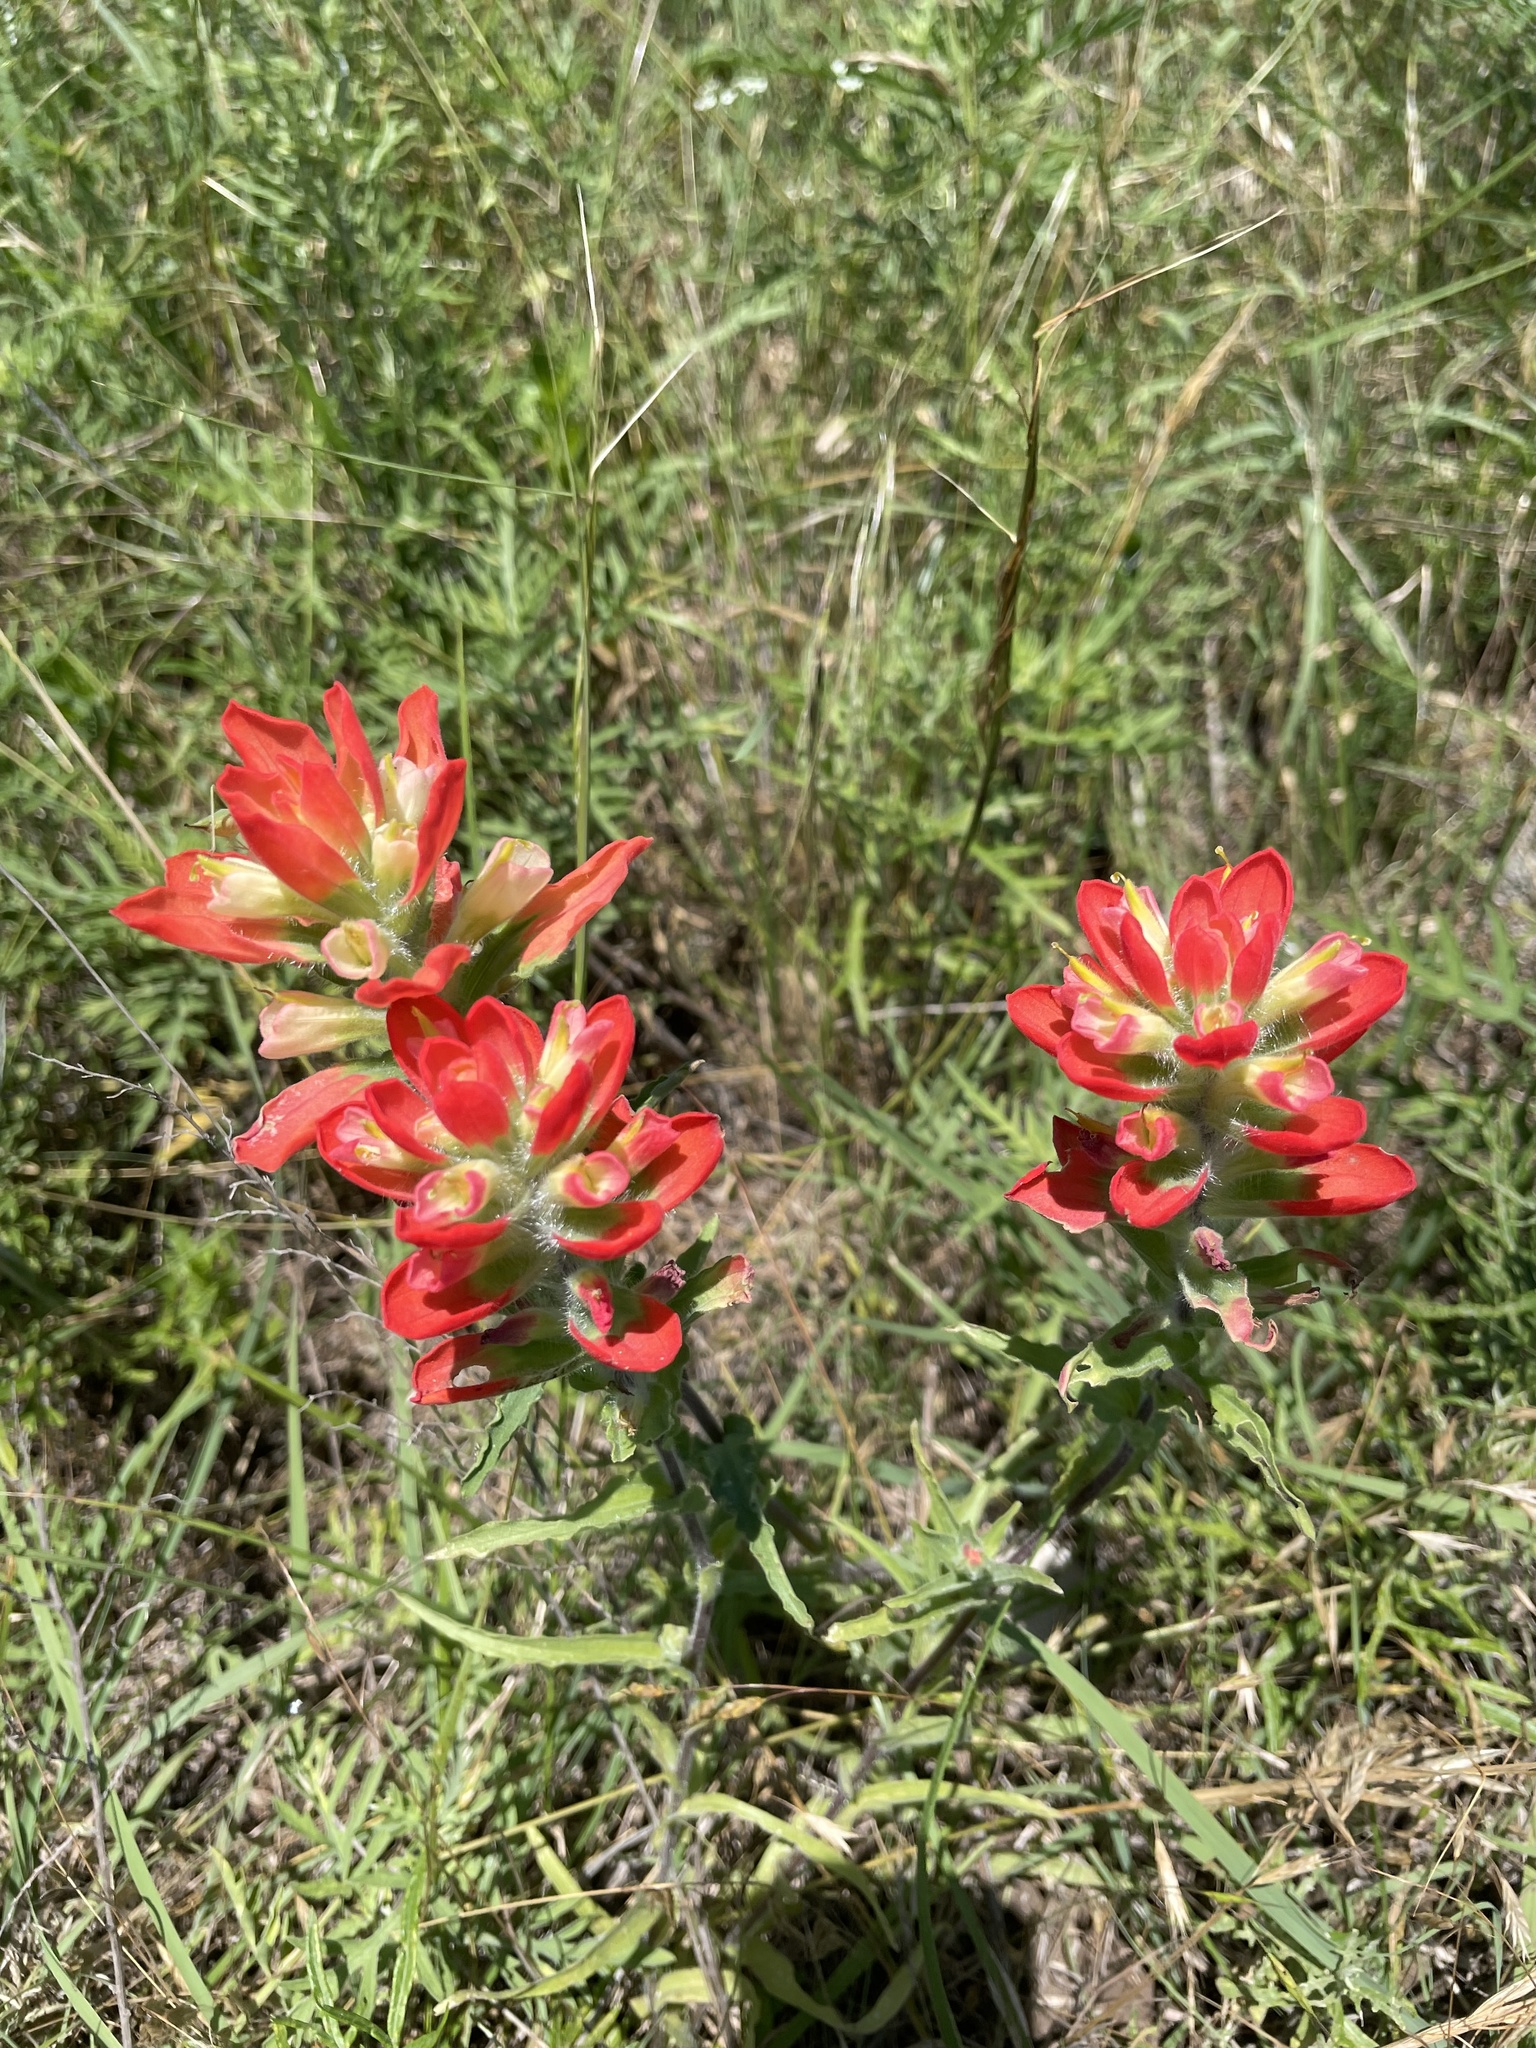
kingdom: Plantae
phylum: Tracheophyta
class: Magnoliopsida
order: Lamiales
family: Orobanchaceae
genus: Castilleja
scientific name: Castilleja indivisa
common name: Texas paintbrush
